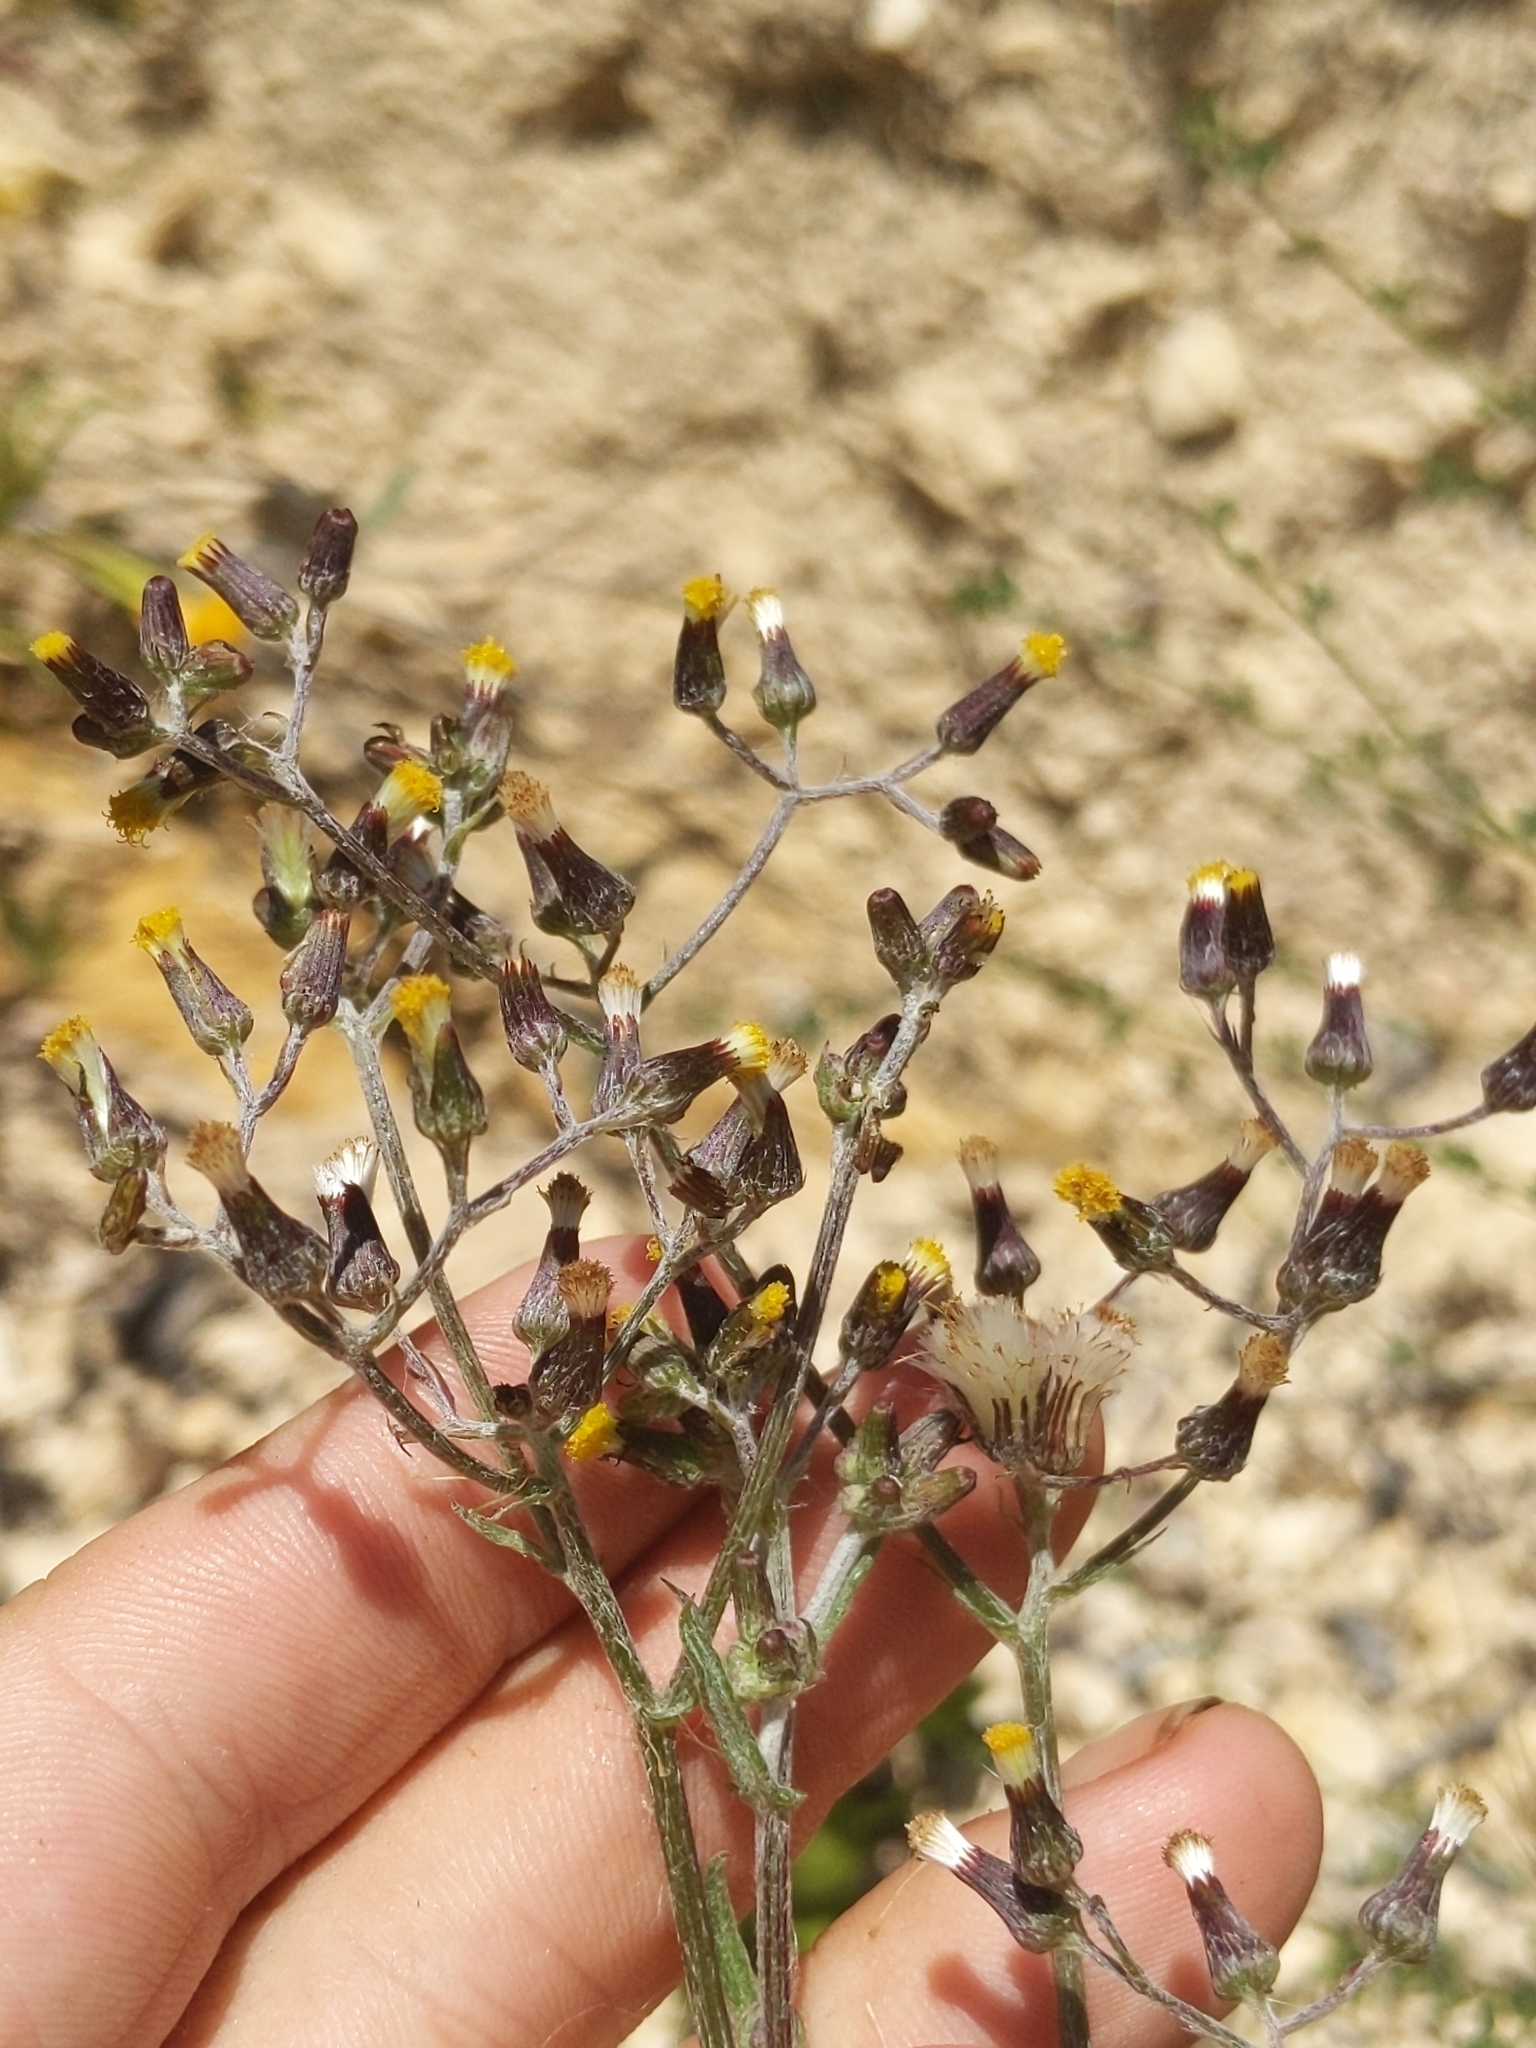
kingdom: Plantae
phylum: Tracheophyta
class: Magnoliopsida
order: Asterales
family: Asteraceae
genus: Senecio
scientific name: Senecio glomeratus
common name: Cutleaf burnweed
